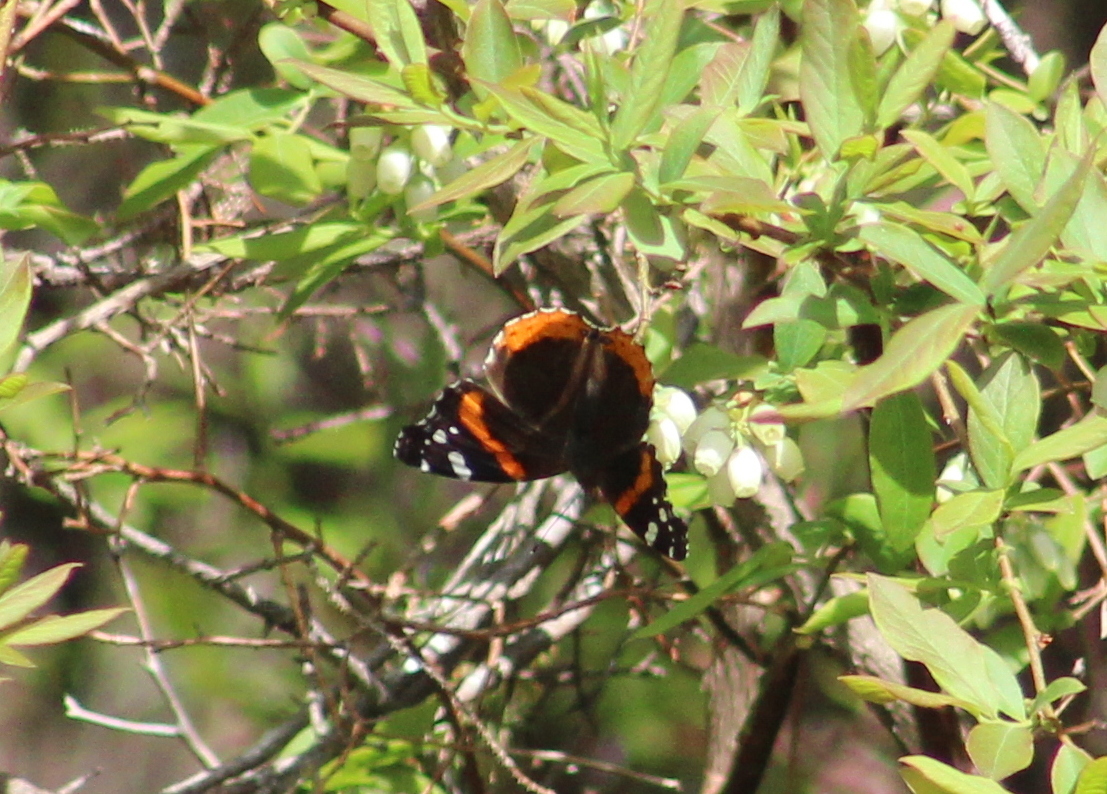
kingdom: Animalia
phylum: Arthropoda
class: Insecta
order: Lepidoptera
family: Nymphalidae
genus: Vanessa
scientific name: Vanessa atalanta
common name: Red admiral
